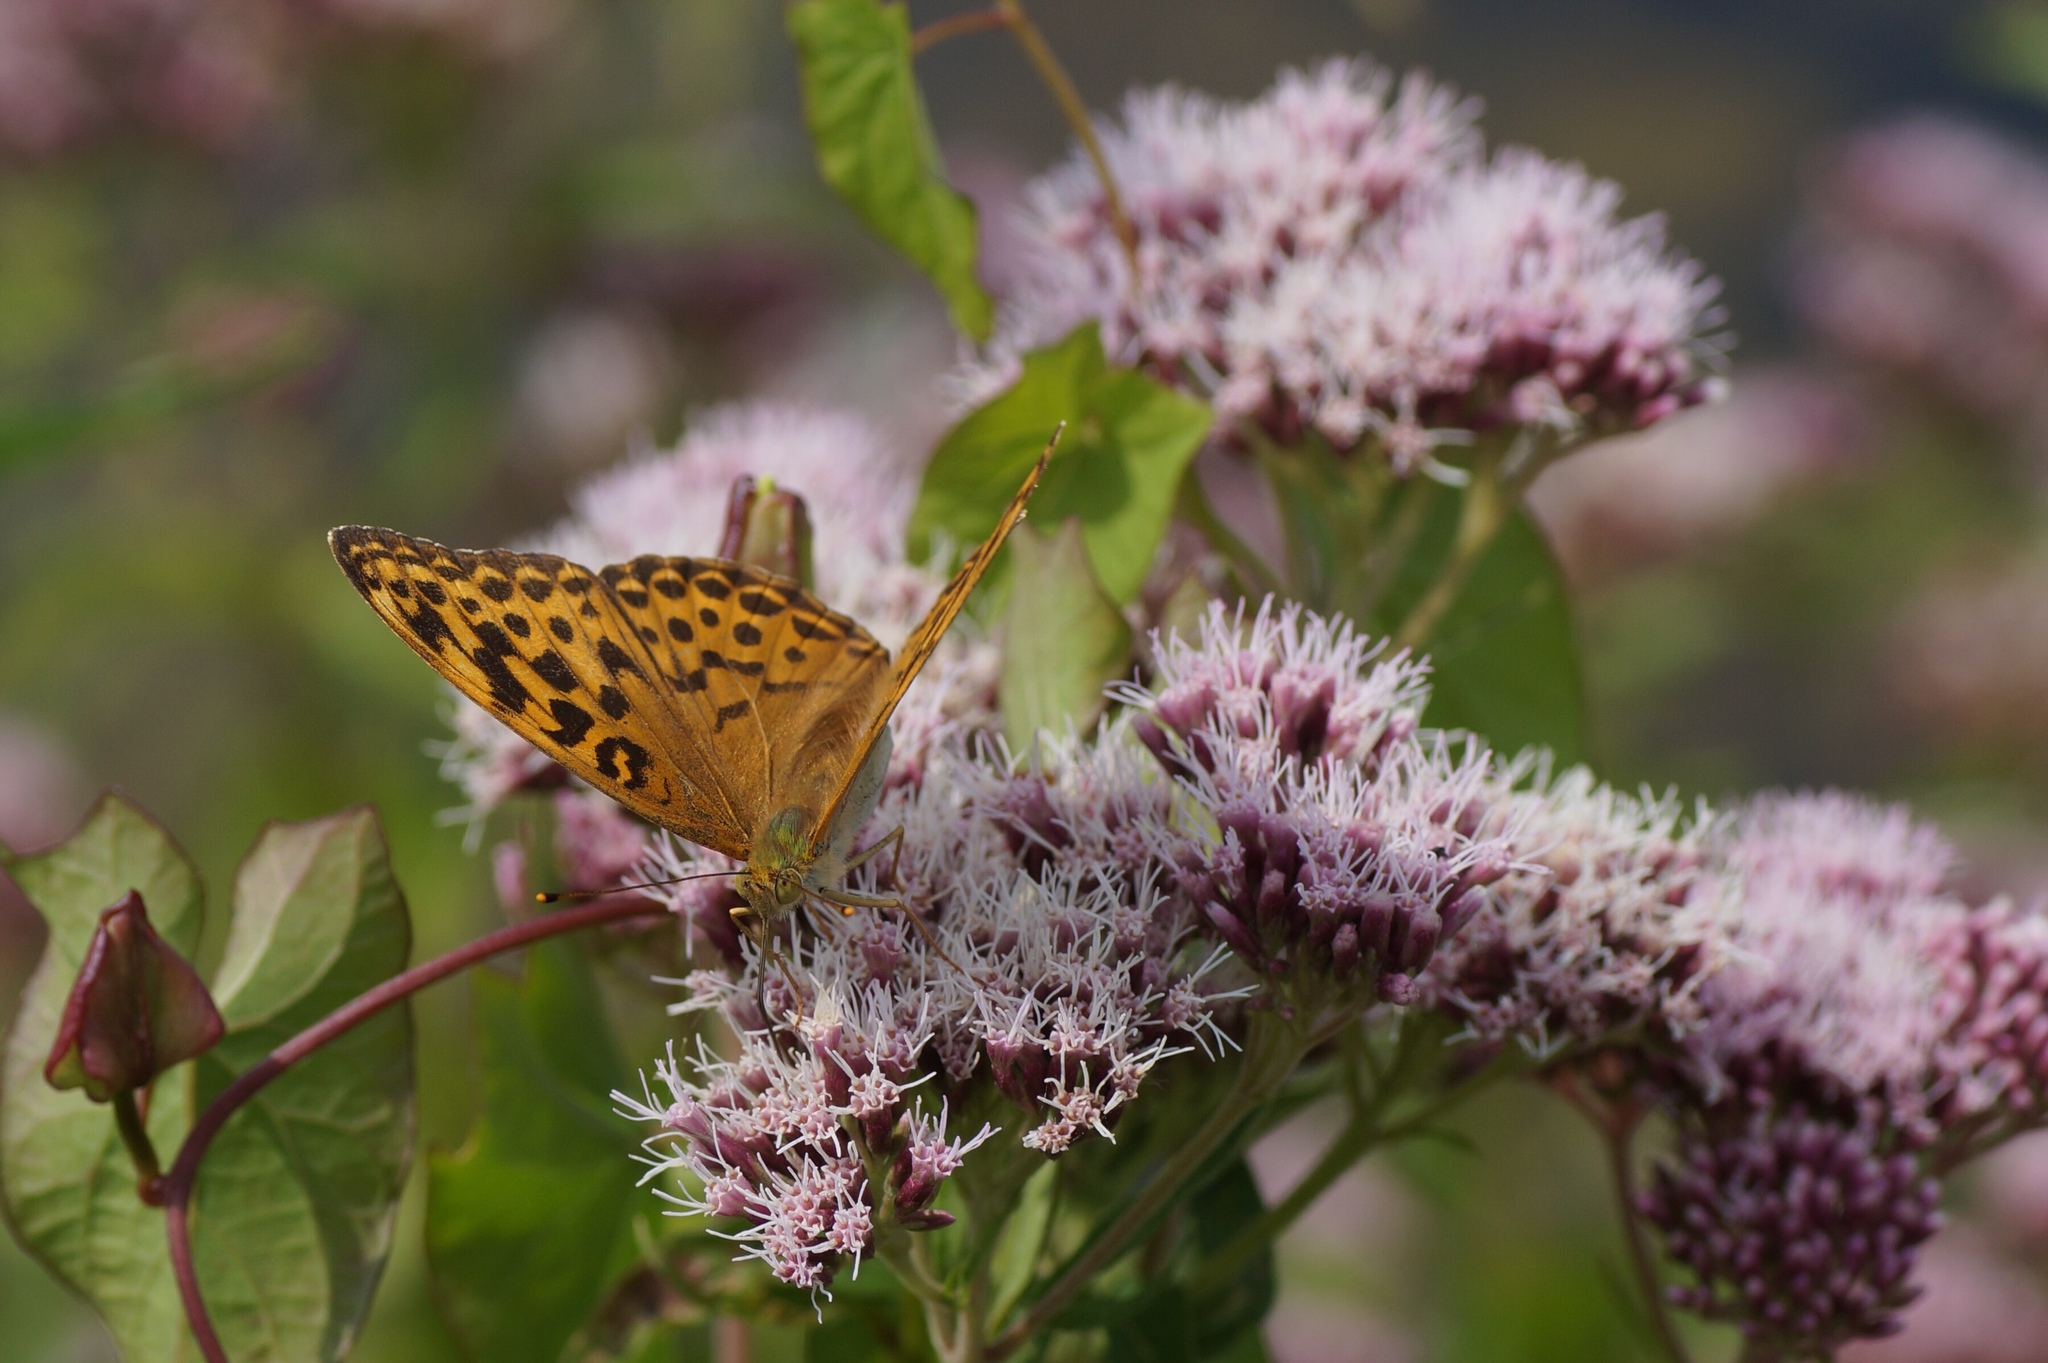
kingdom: Animalia
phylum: Arthropoda
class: Insecta
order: Lepidoptera
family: Nymphalidae
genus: Argynnis
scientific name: Argynnis paphia
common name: Silver-washed fritillary
